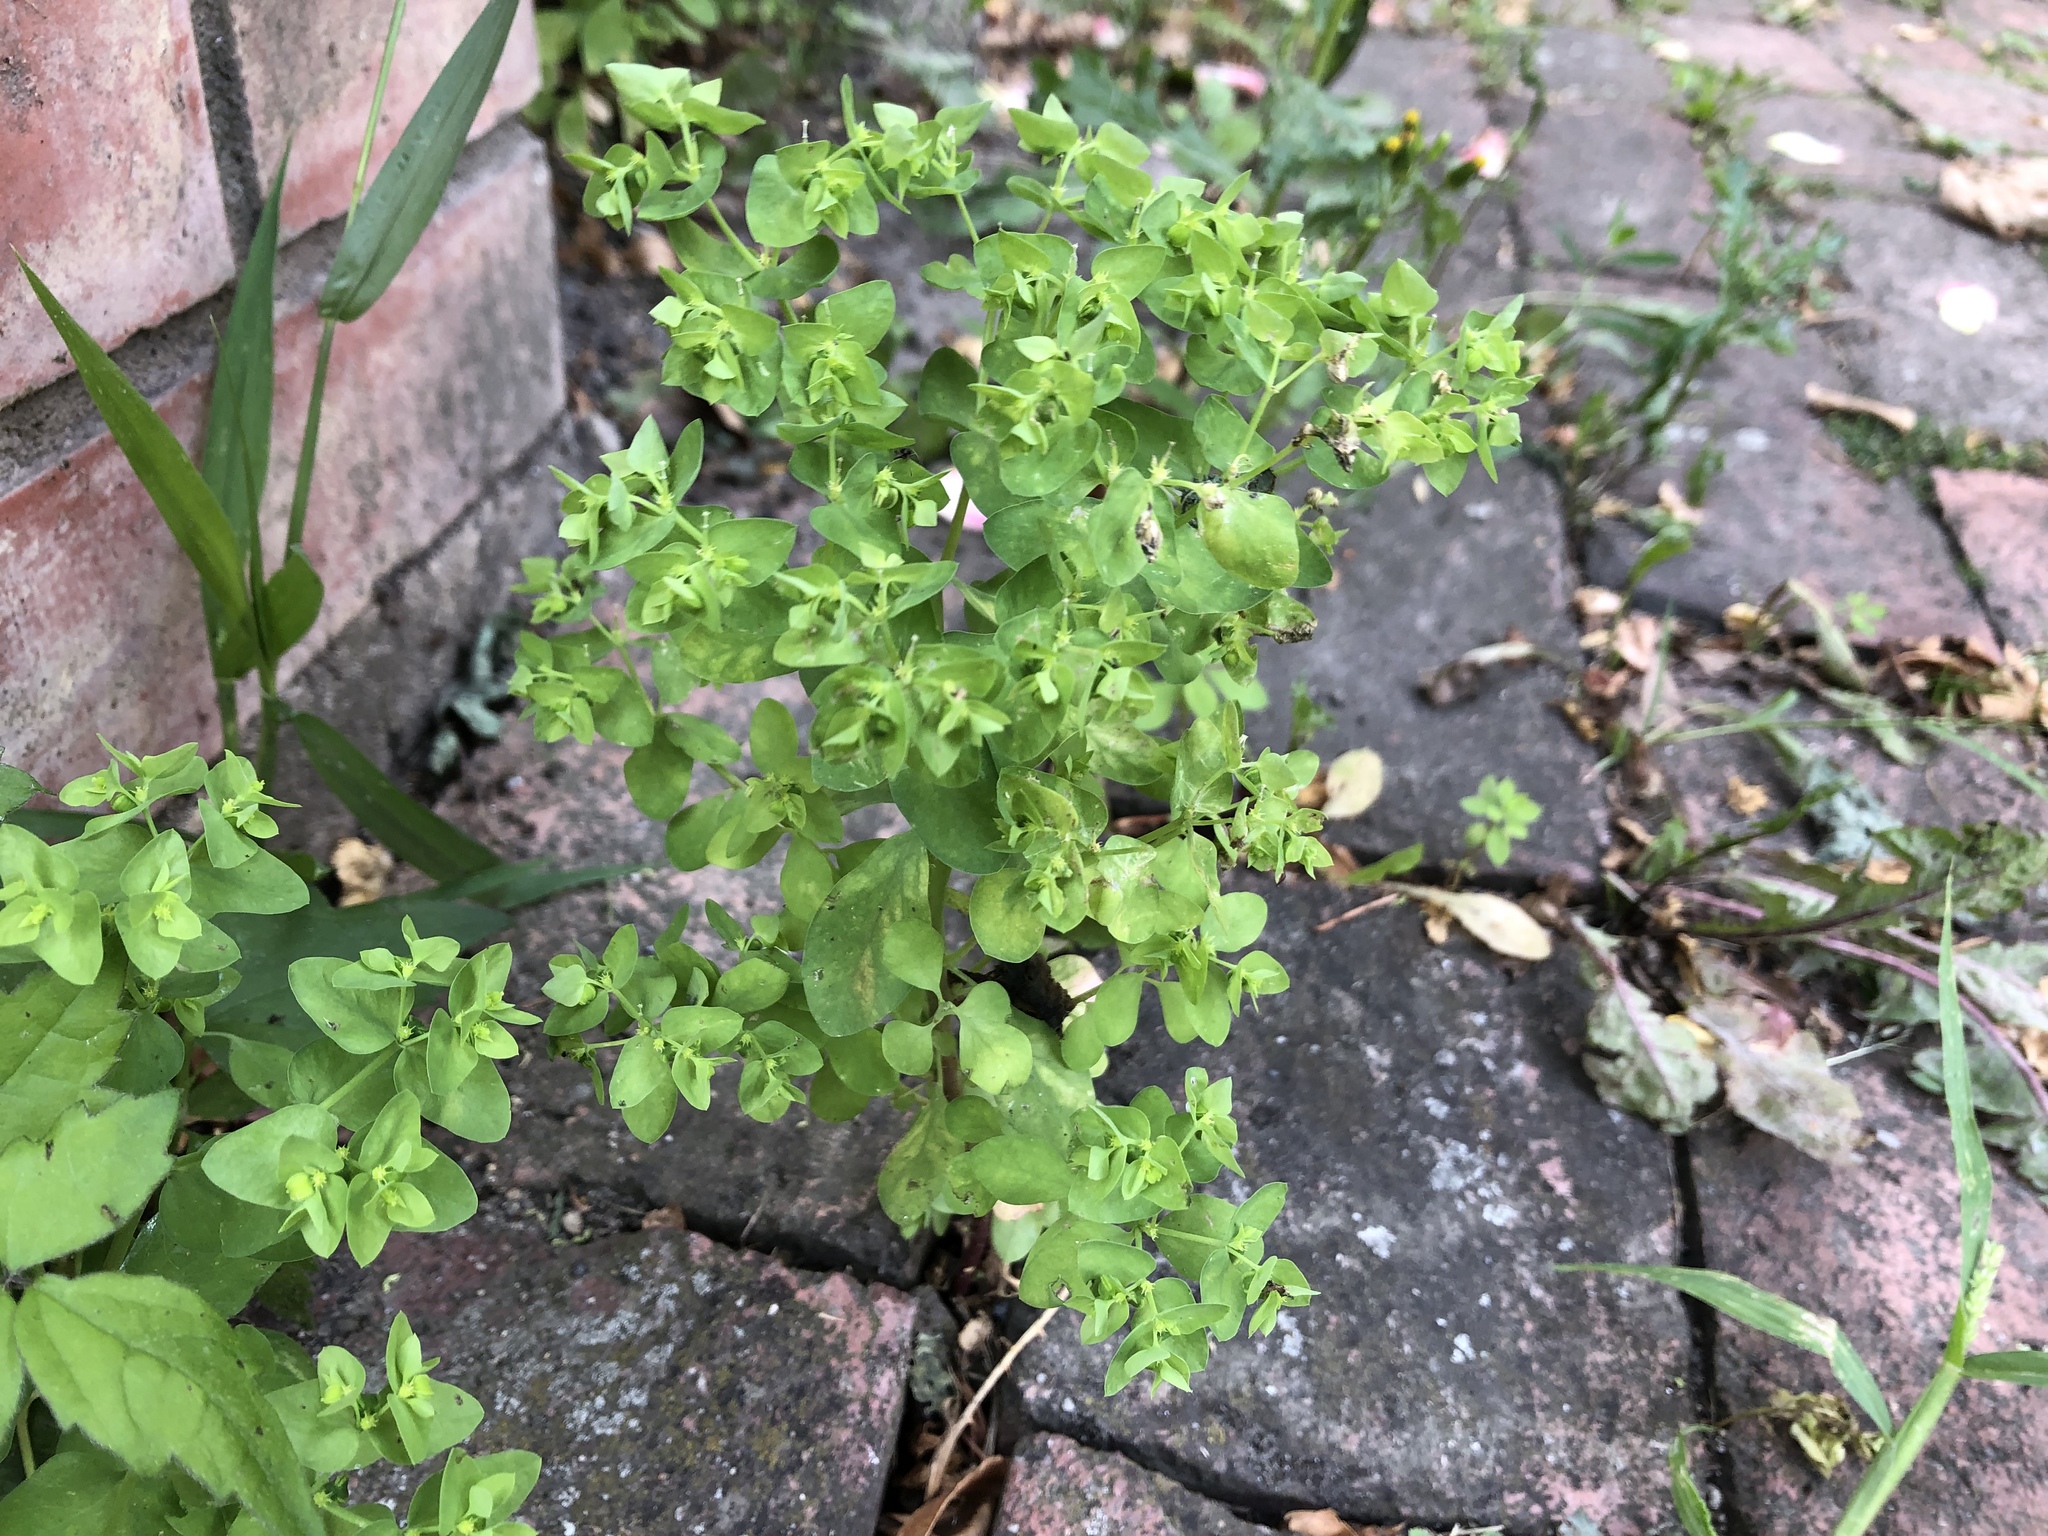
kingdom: Plantae
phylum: Tracheophyta
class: Magnoliopsida
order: Malpighiales
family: Euphorbiaceae
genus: Euphorbia
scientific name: Euphorbia peplus
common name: Petty spurge
